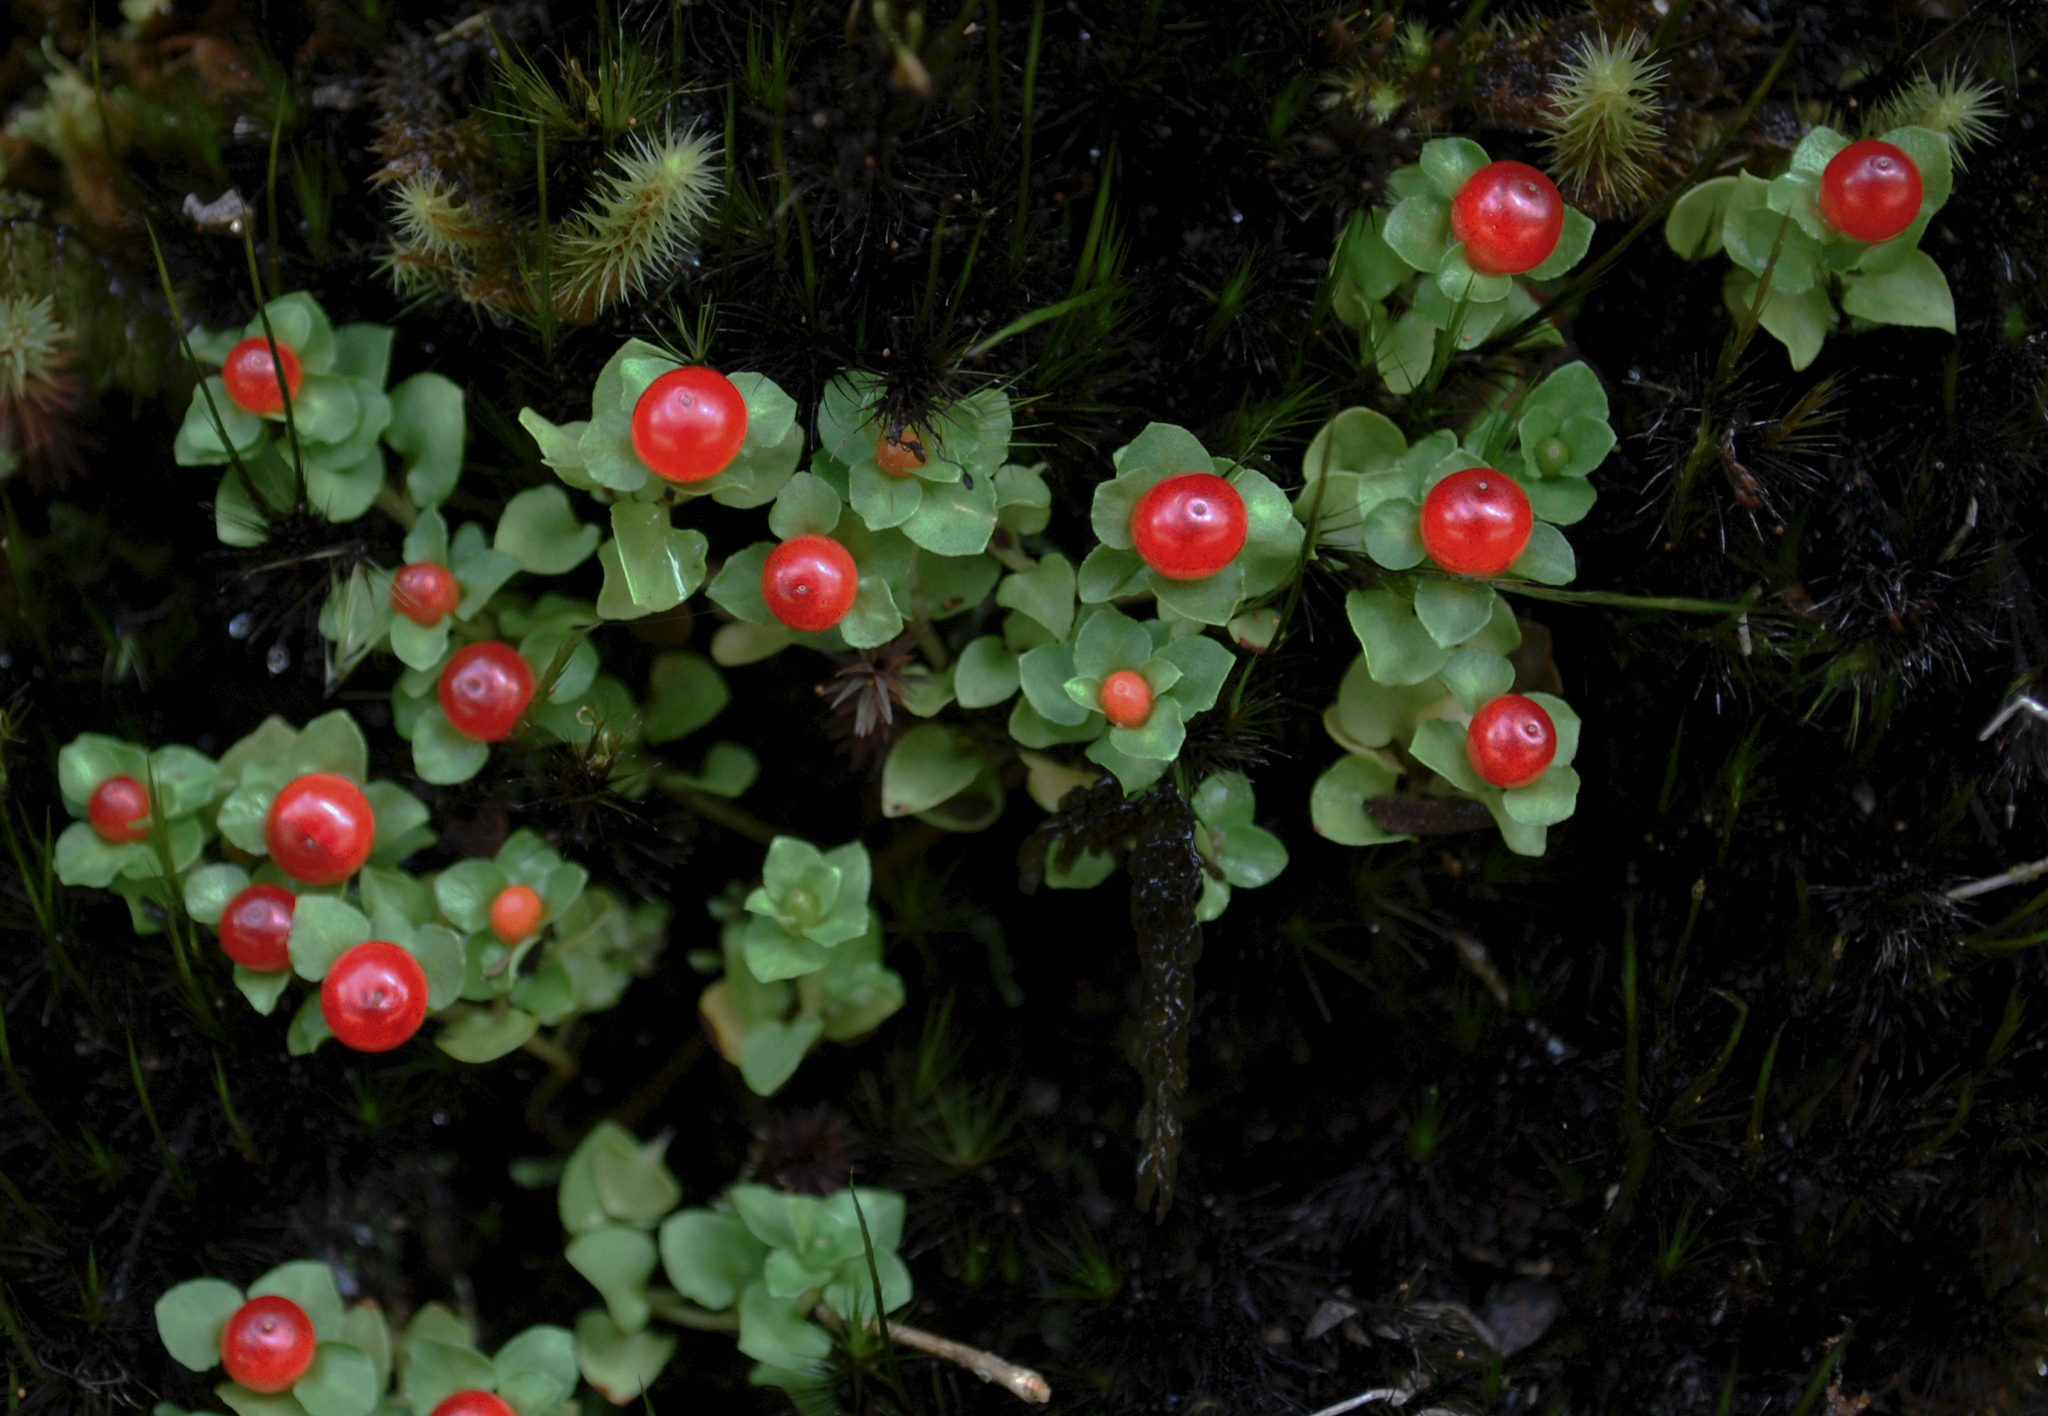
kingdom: Plantae
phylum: Tracheophyta
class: Magnoliopsida
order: Gentianales
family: Rubiaceae
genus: Nertera
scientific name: Nertera granadensis
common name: Beadplant
